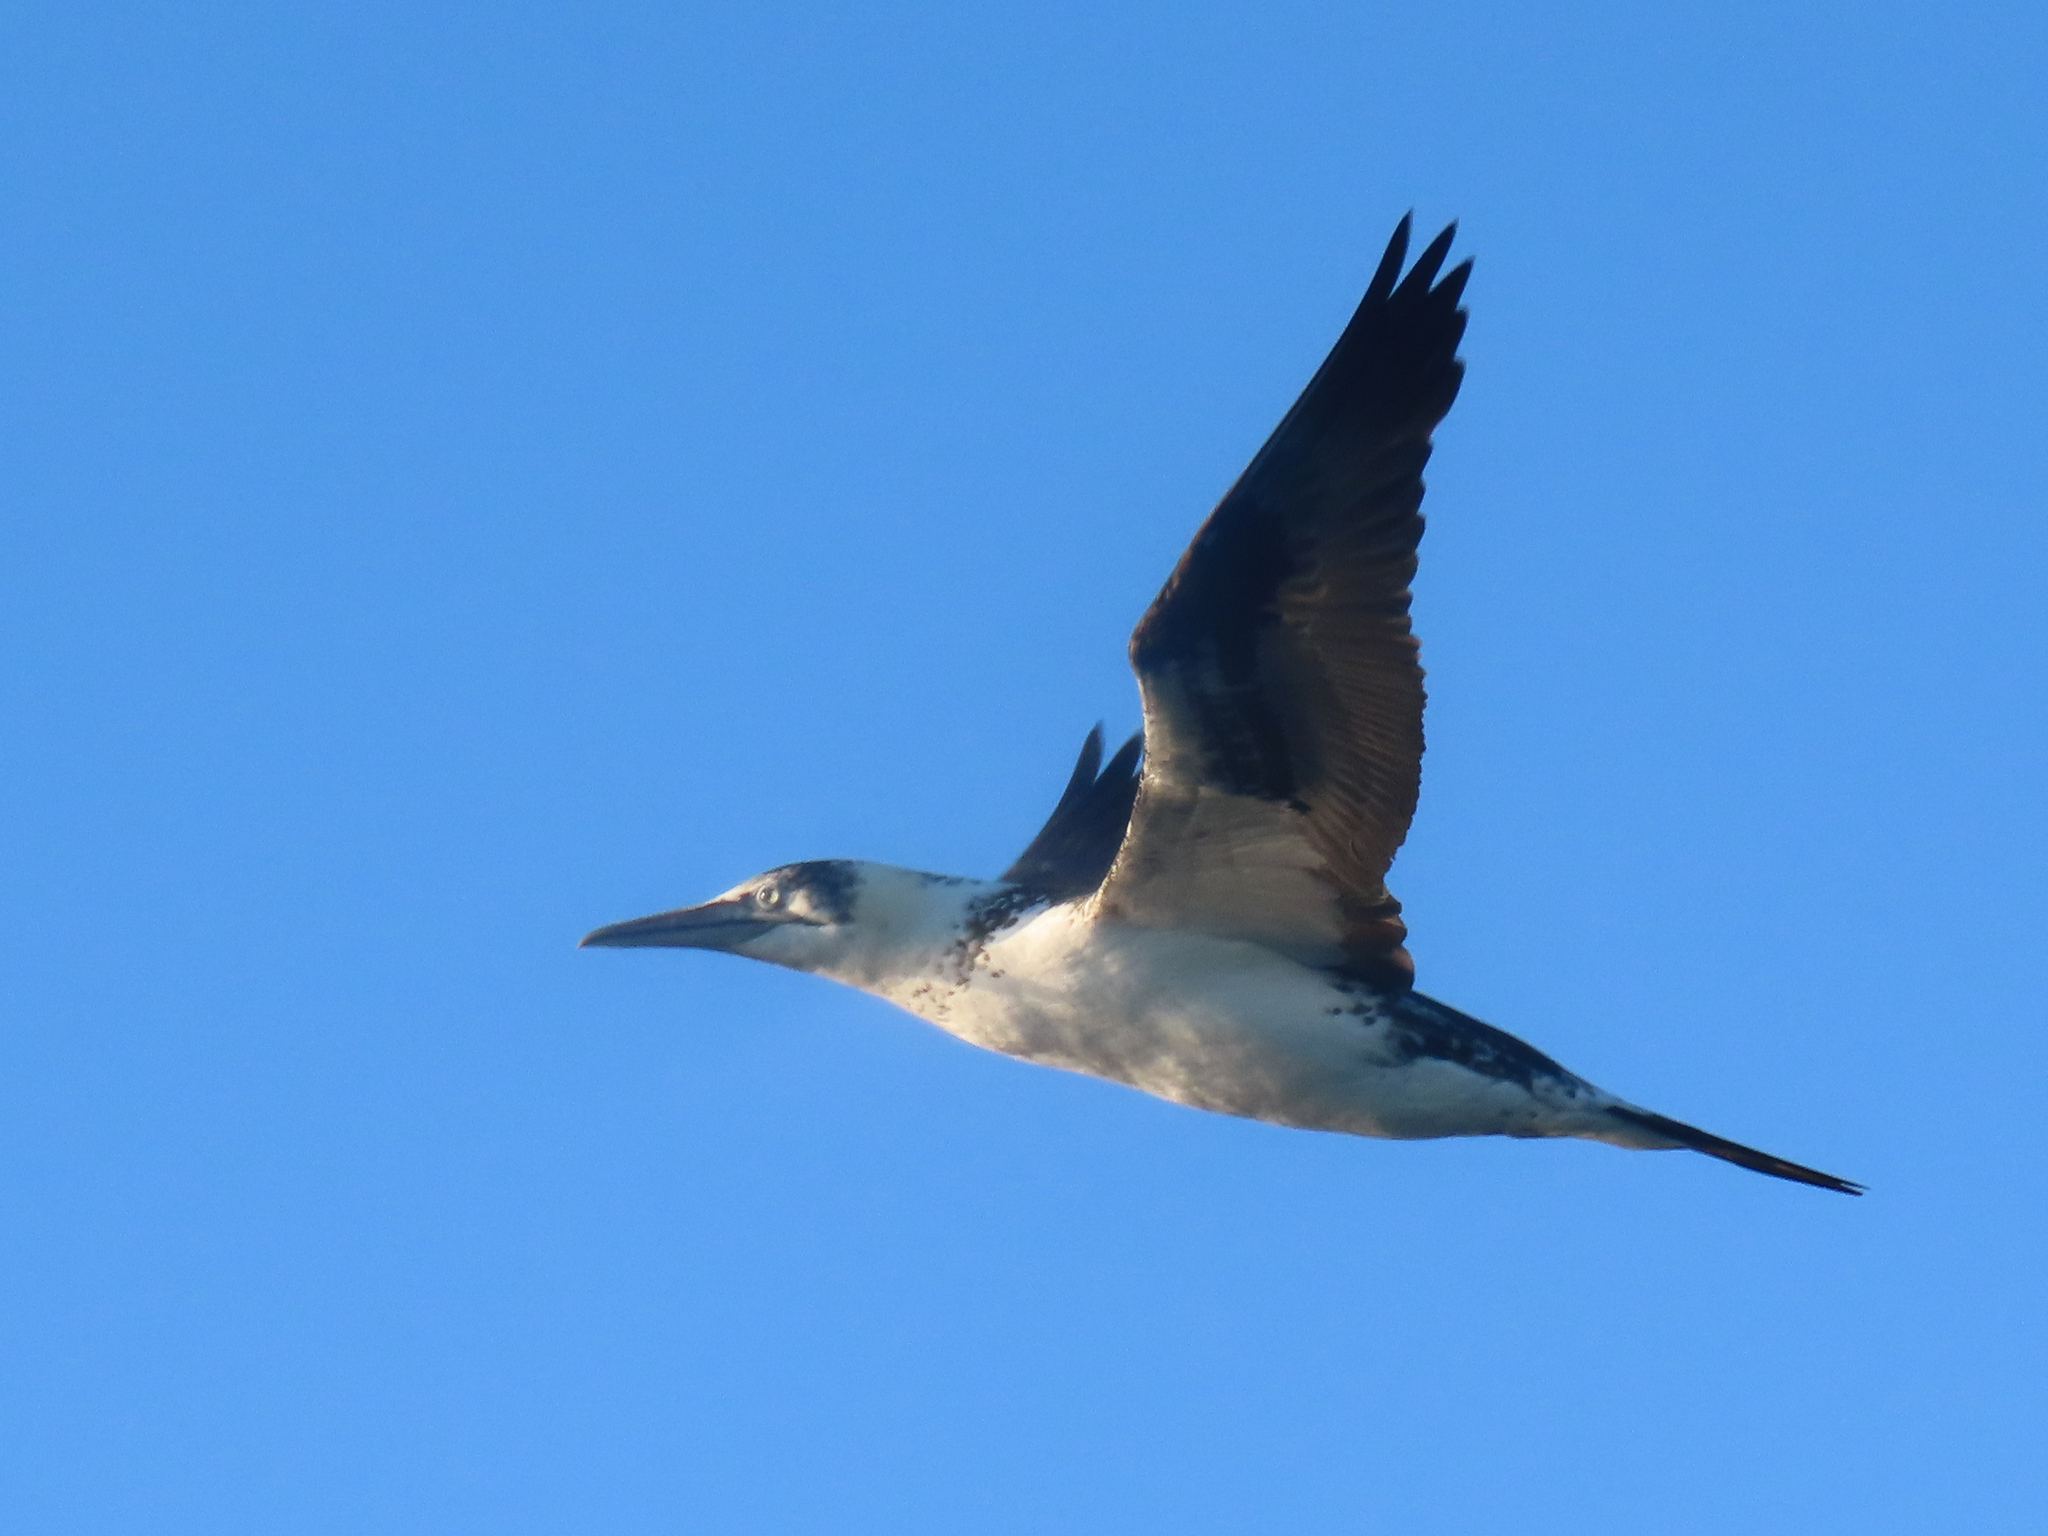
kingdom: Animalia
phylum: Chordata
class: Aves
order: Suliformes
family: Sulidae
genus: Morus
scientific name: Morus bassanus
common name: Northern gannet
